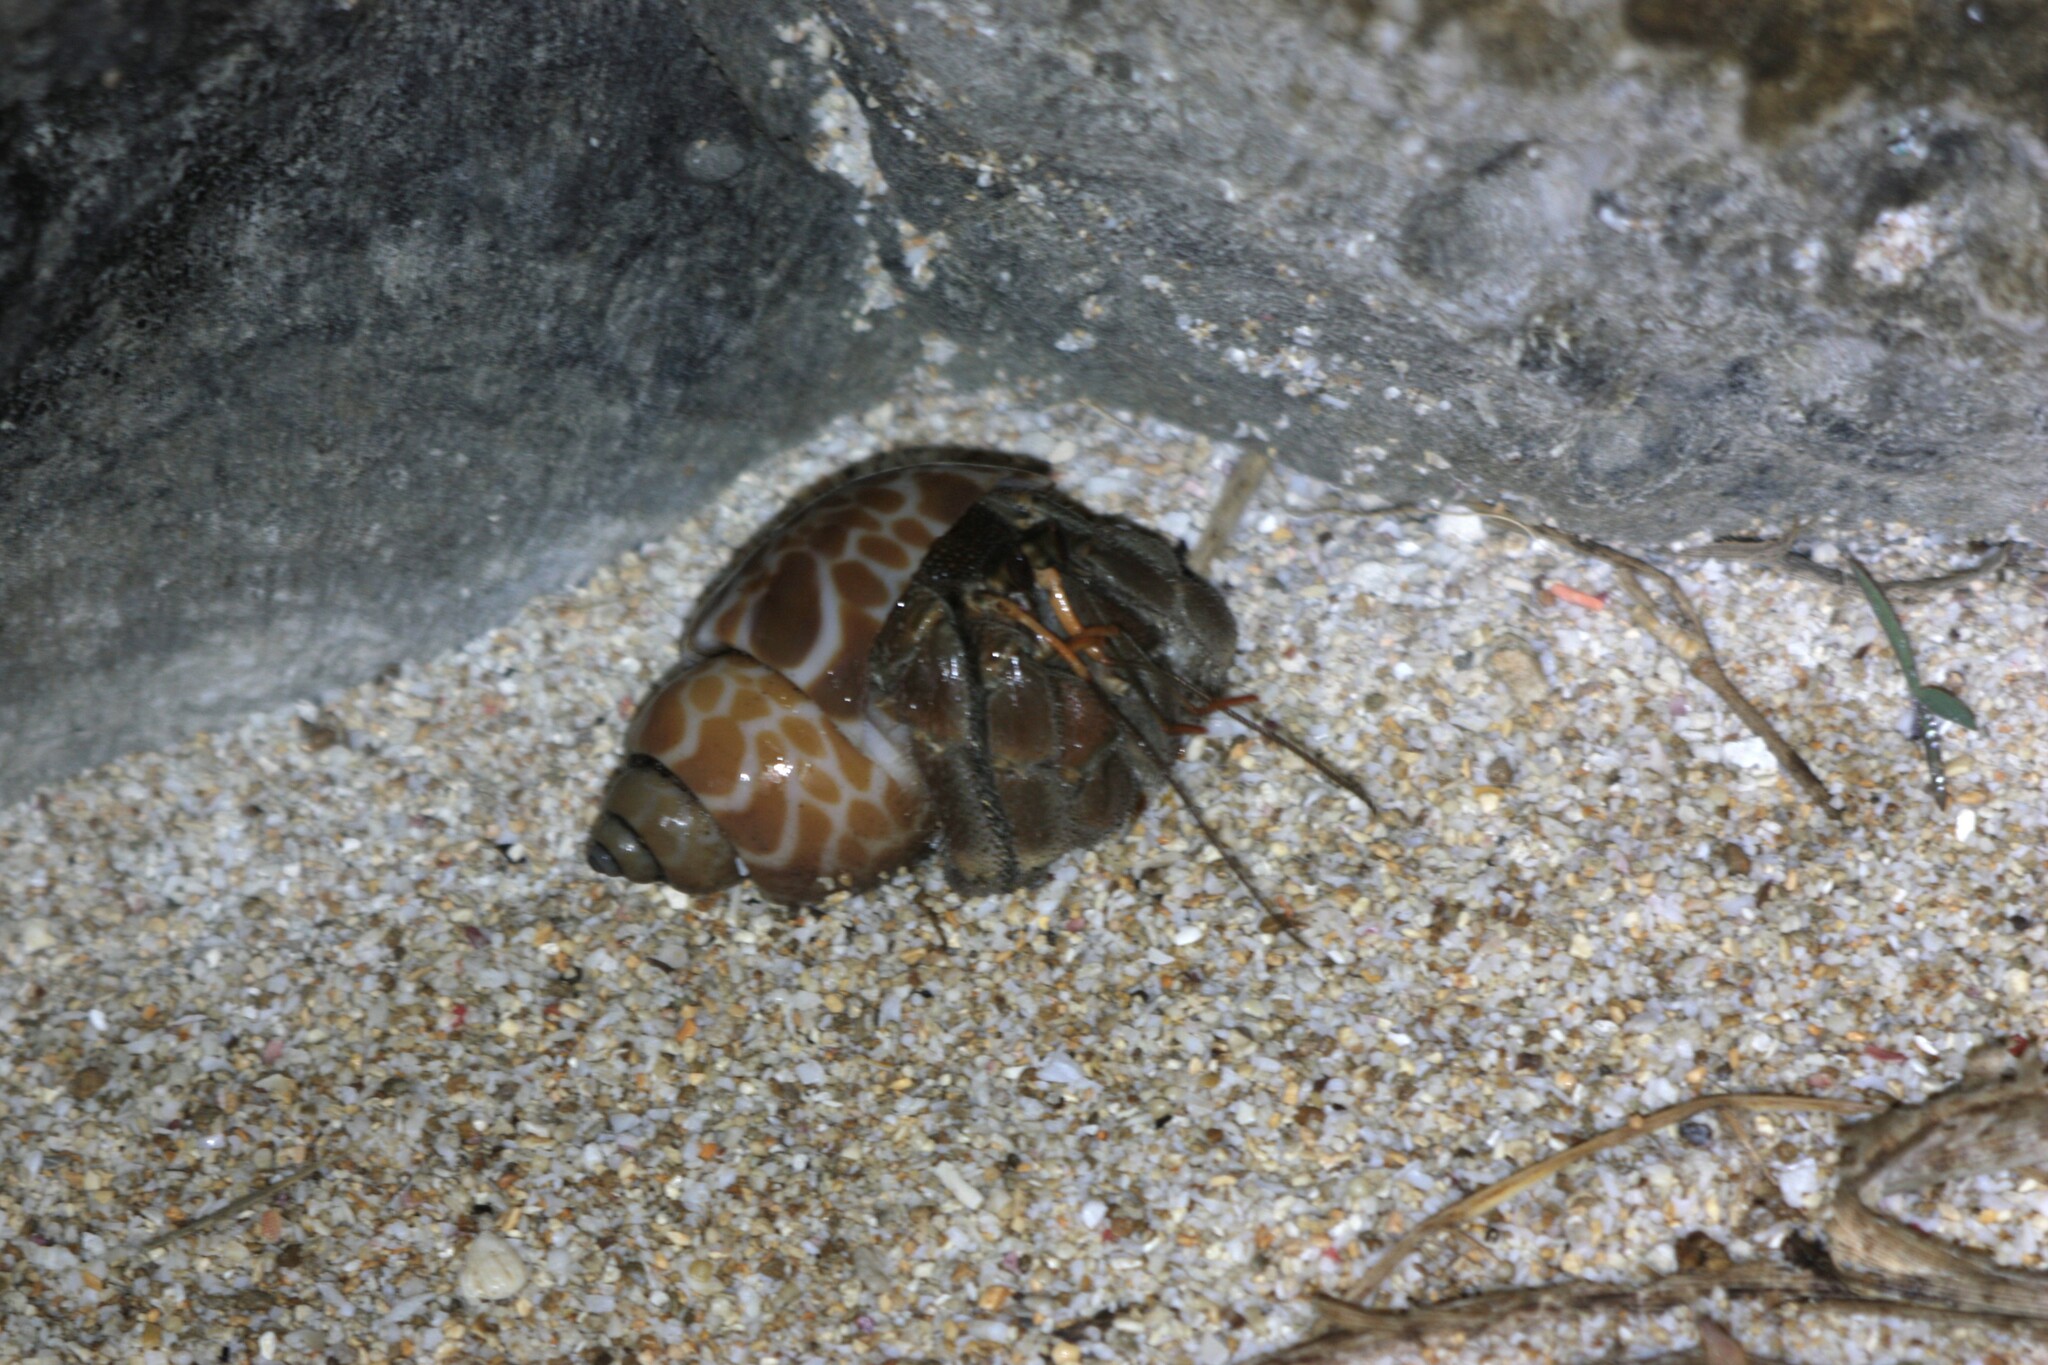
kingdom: Animalia
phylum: Arthropoda
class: Malacostraca
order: Decapoda
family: Coenobitidae
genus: Coenobita
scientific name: Coenobita cavipes
